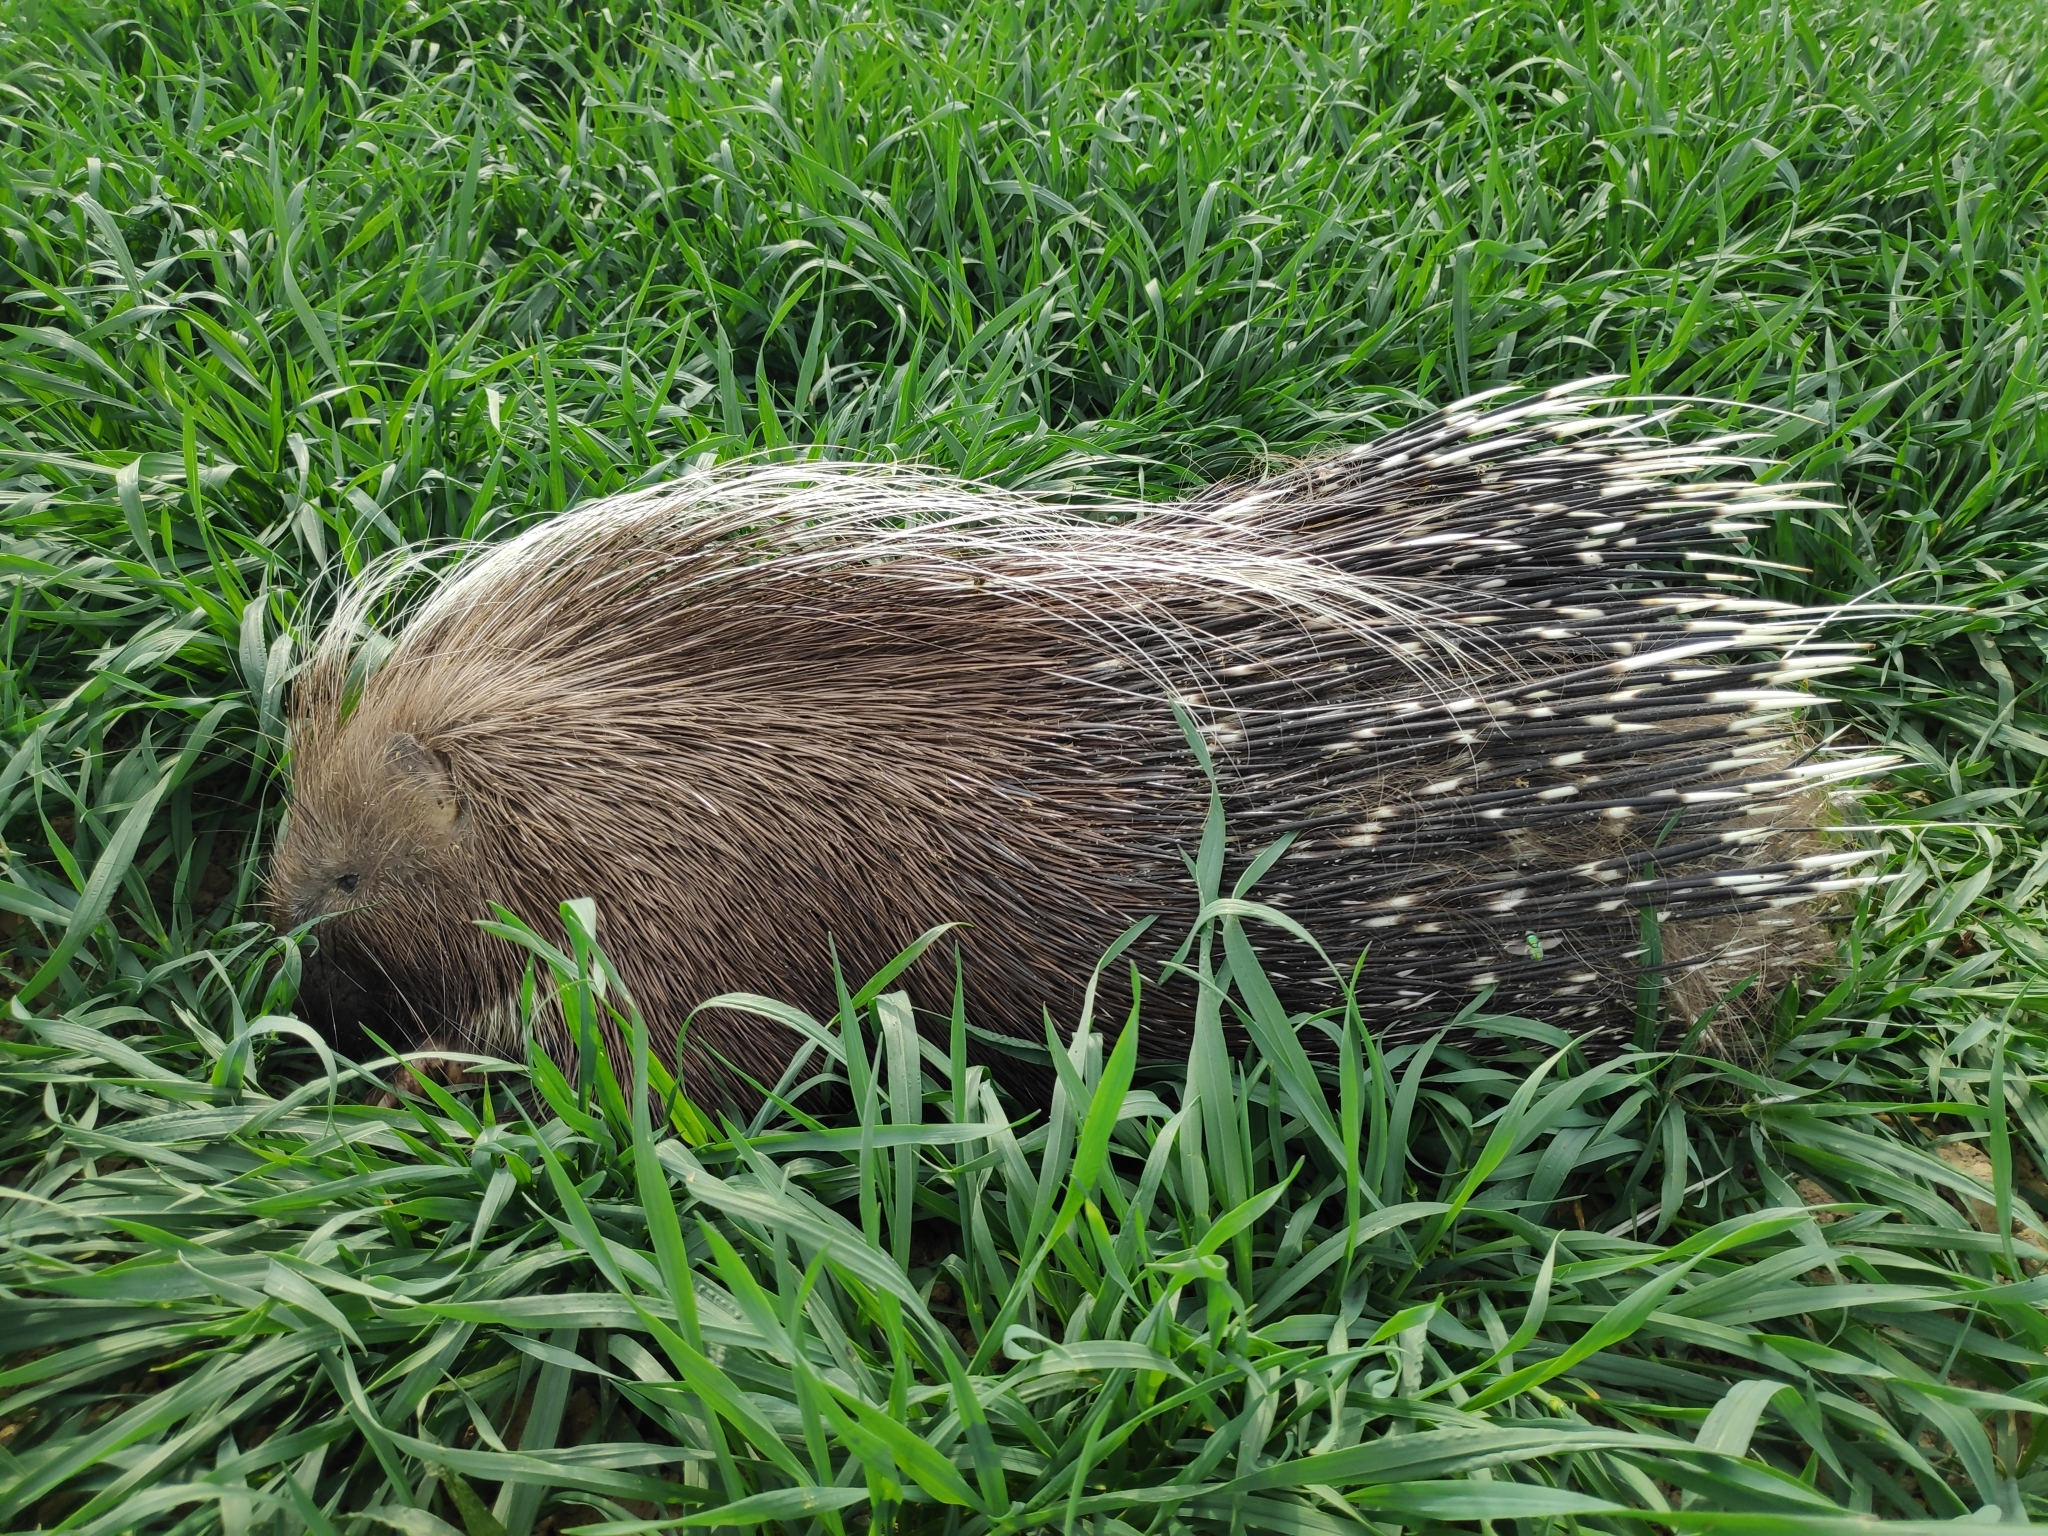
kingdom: Animalia
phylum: Chordata
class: Mammalia
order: Rodentia
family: Hystricidae
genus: Hystrix
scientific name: Hystrix cristata
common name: Crested porcupine
